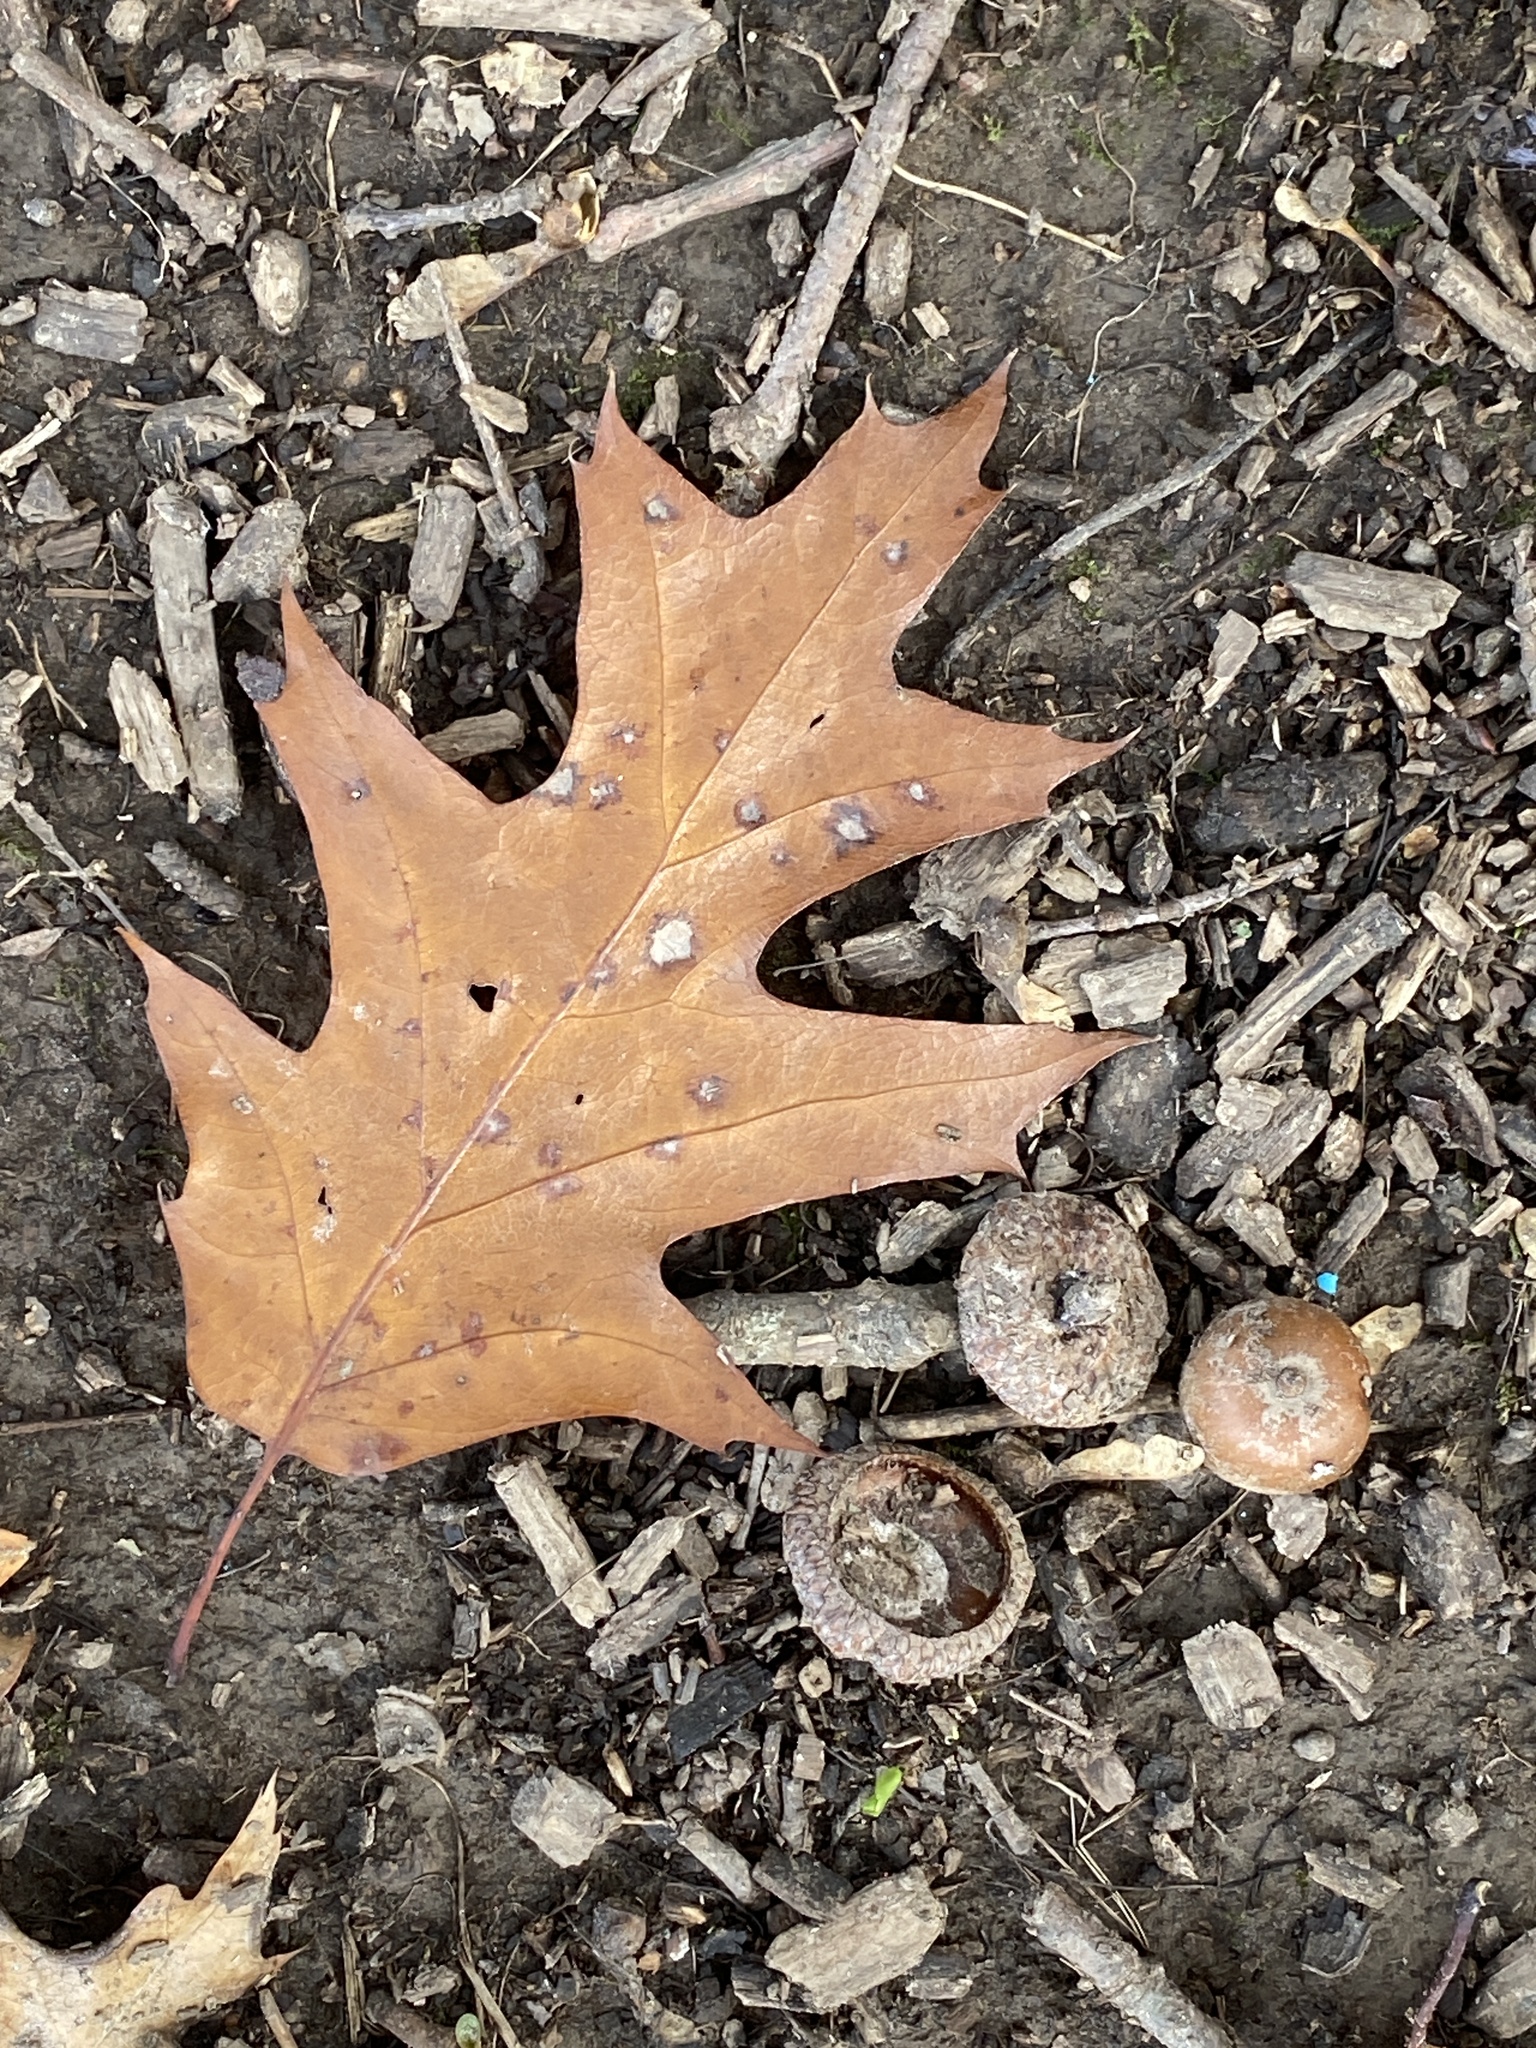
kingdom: Plantae
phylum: Tracheophyta
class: Magnoliopsida
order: Fagales
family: Fagaceae
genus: Quercus
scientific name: Quercus rubra
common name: Red oak
